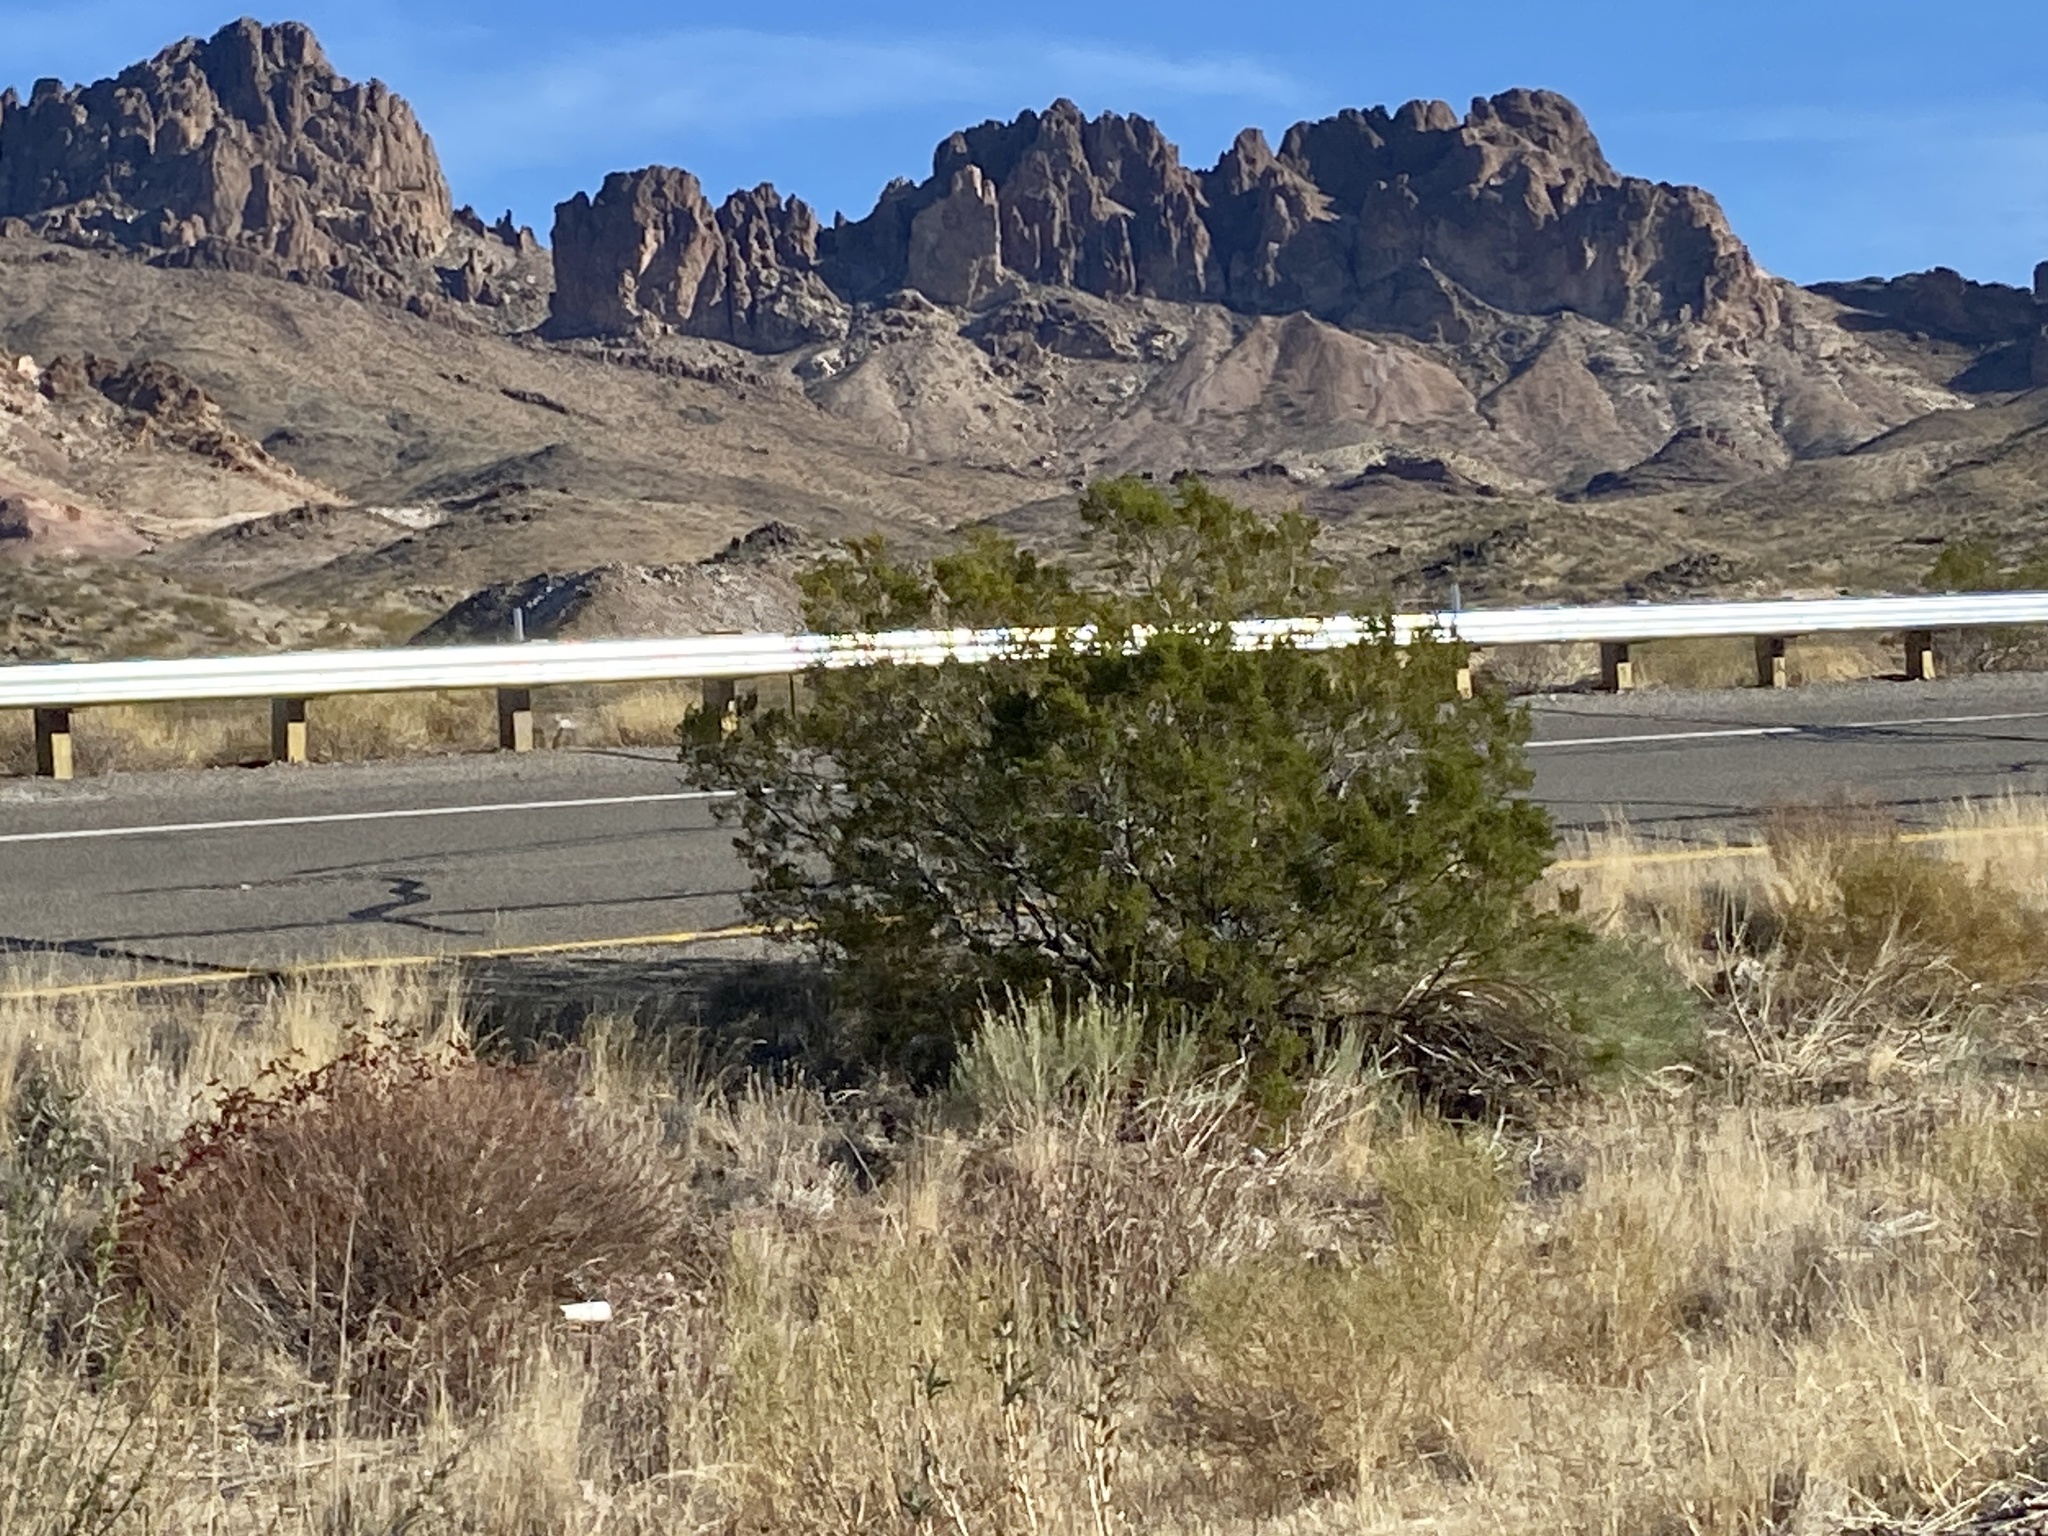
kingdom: Plantae
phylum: Tracheophyta
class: Magnoliopsida
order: Zygophyllales
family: Zygophyllaceae
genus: Larrea
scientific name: Larrea tridentata
